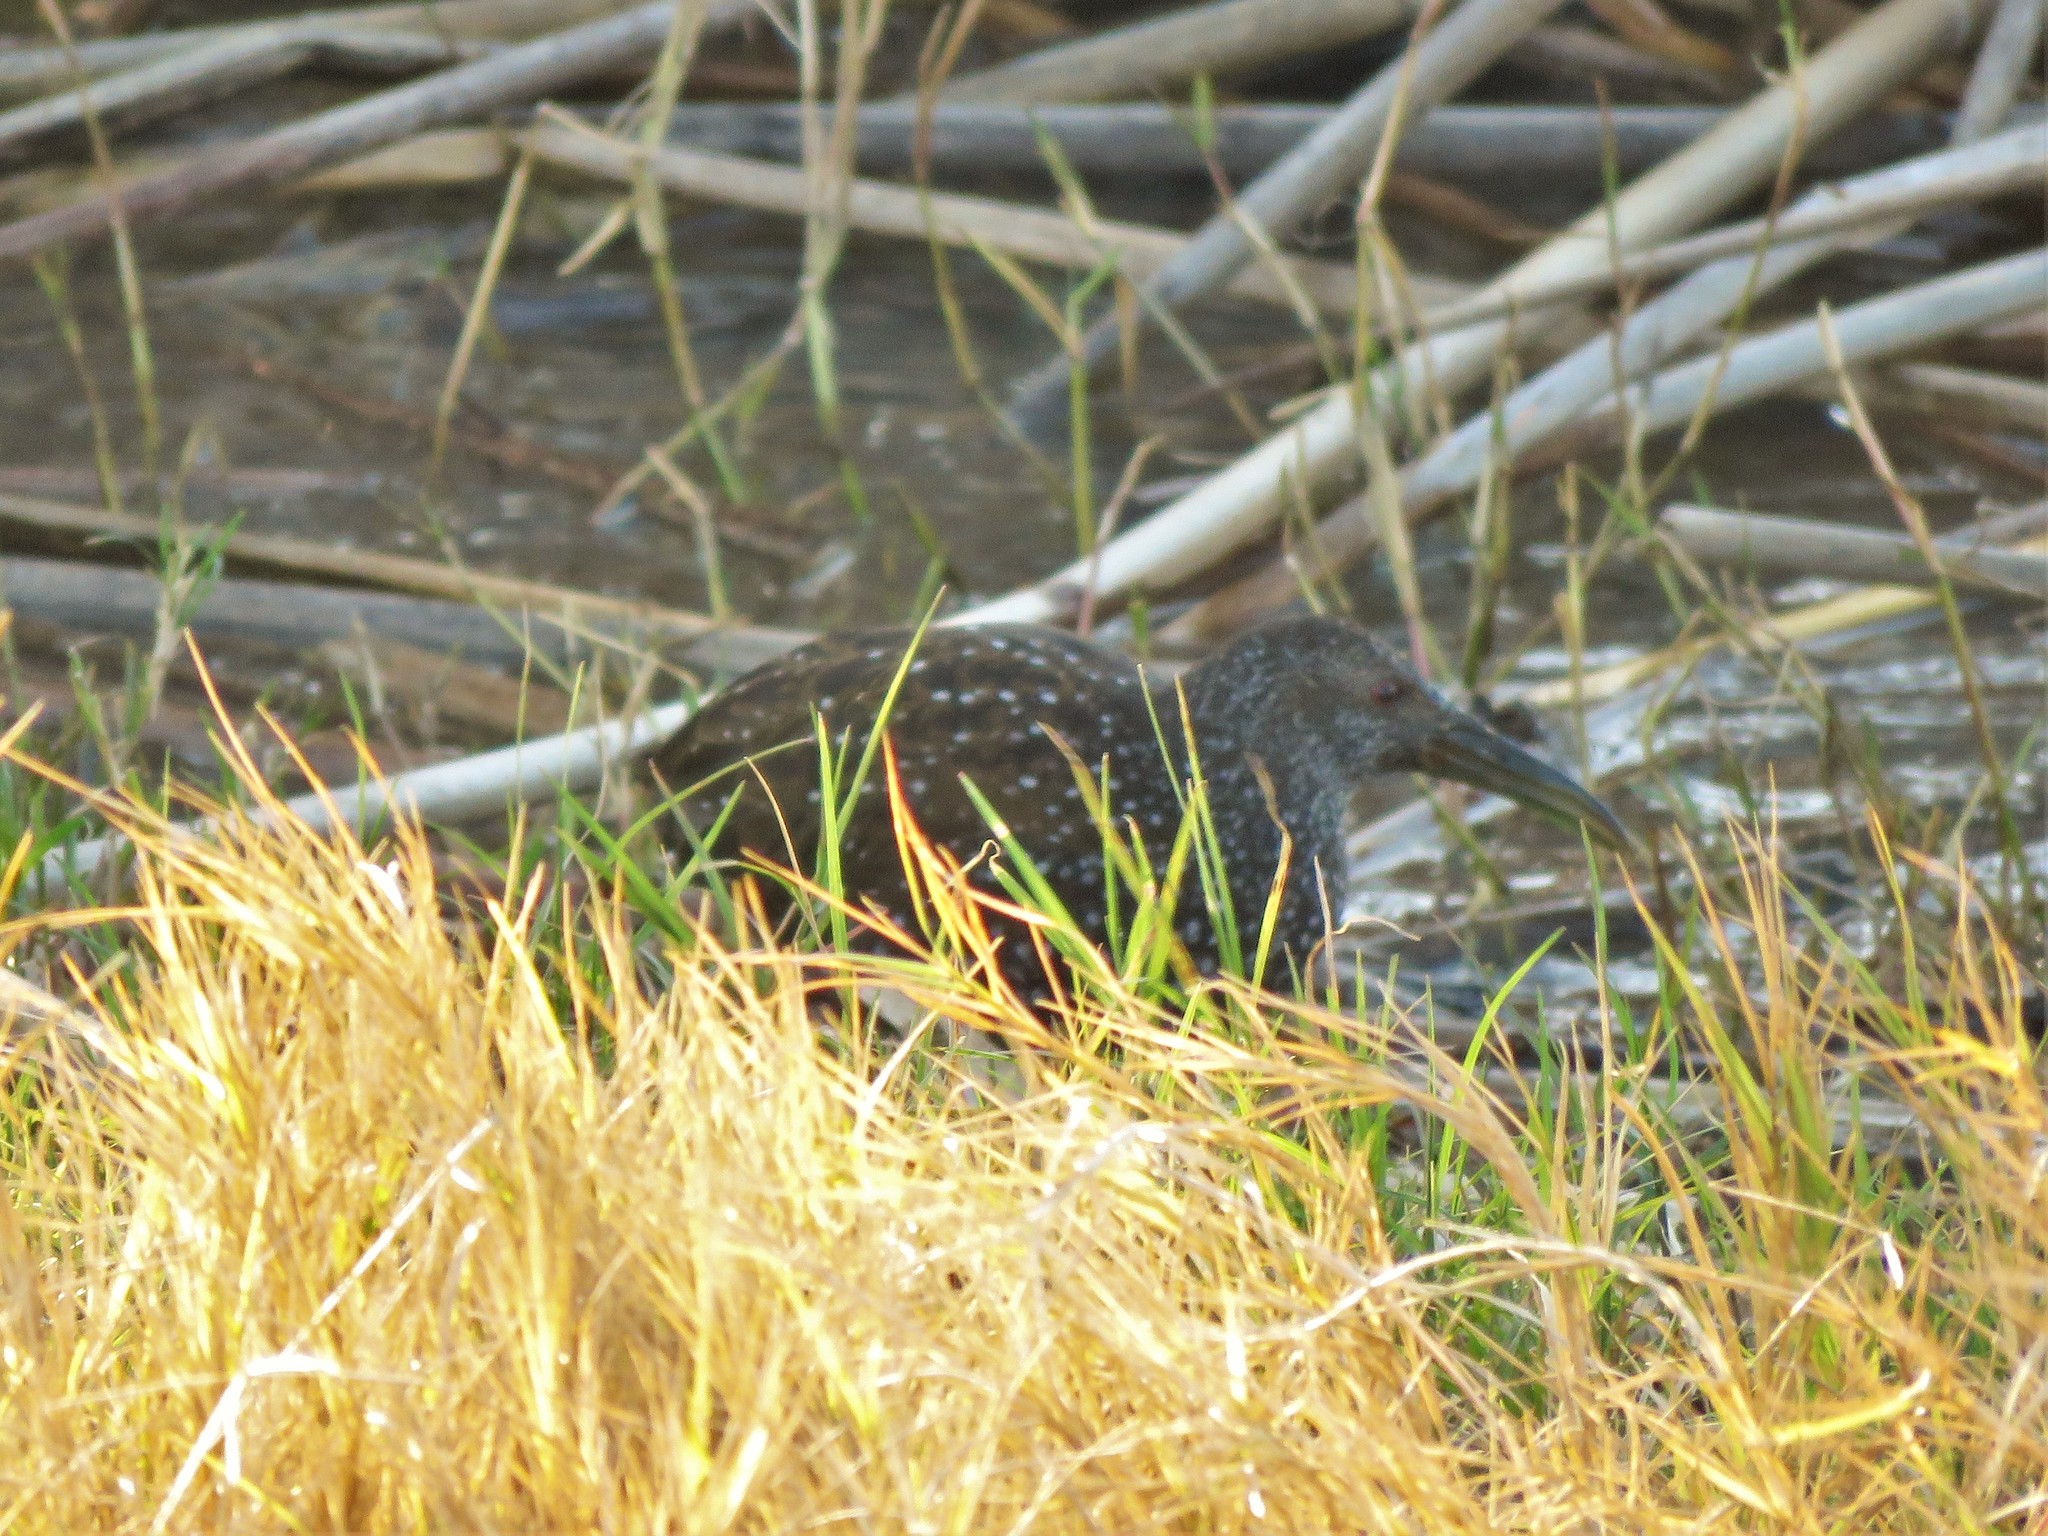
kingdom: Animalia
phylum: Chordata
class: Aves
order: Gruiformes
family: Rallidae
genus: Pardirallus
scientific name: Pardirallus maculatus
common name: Spotted rail
